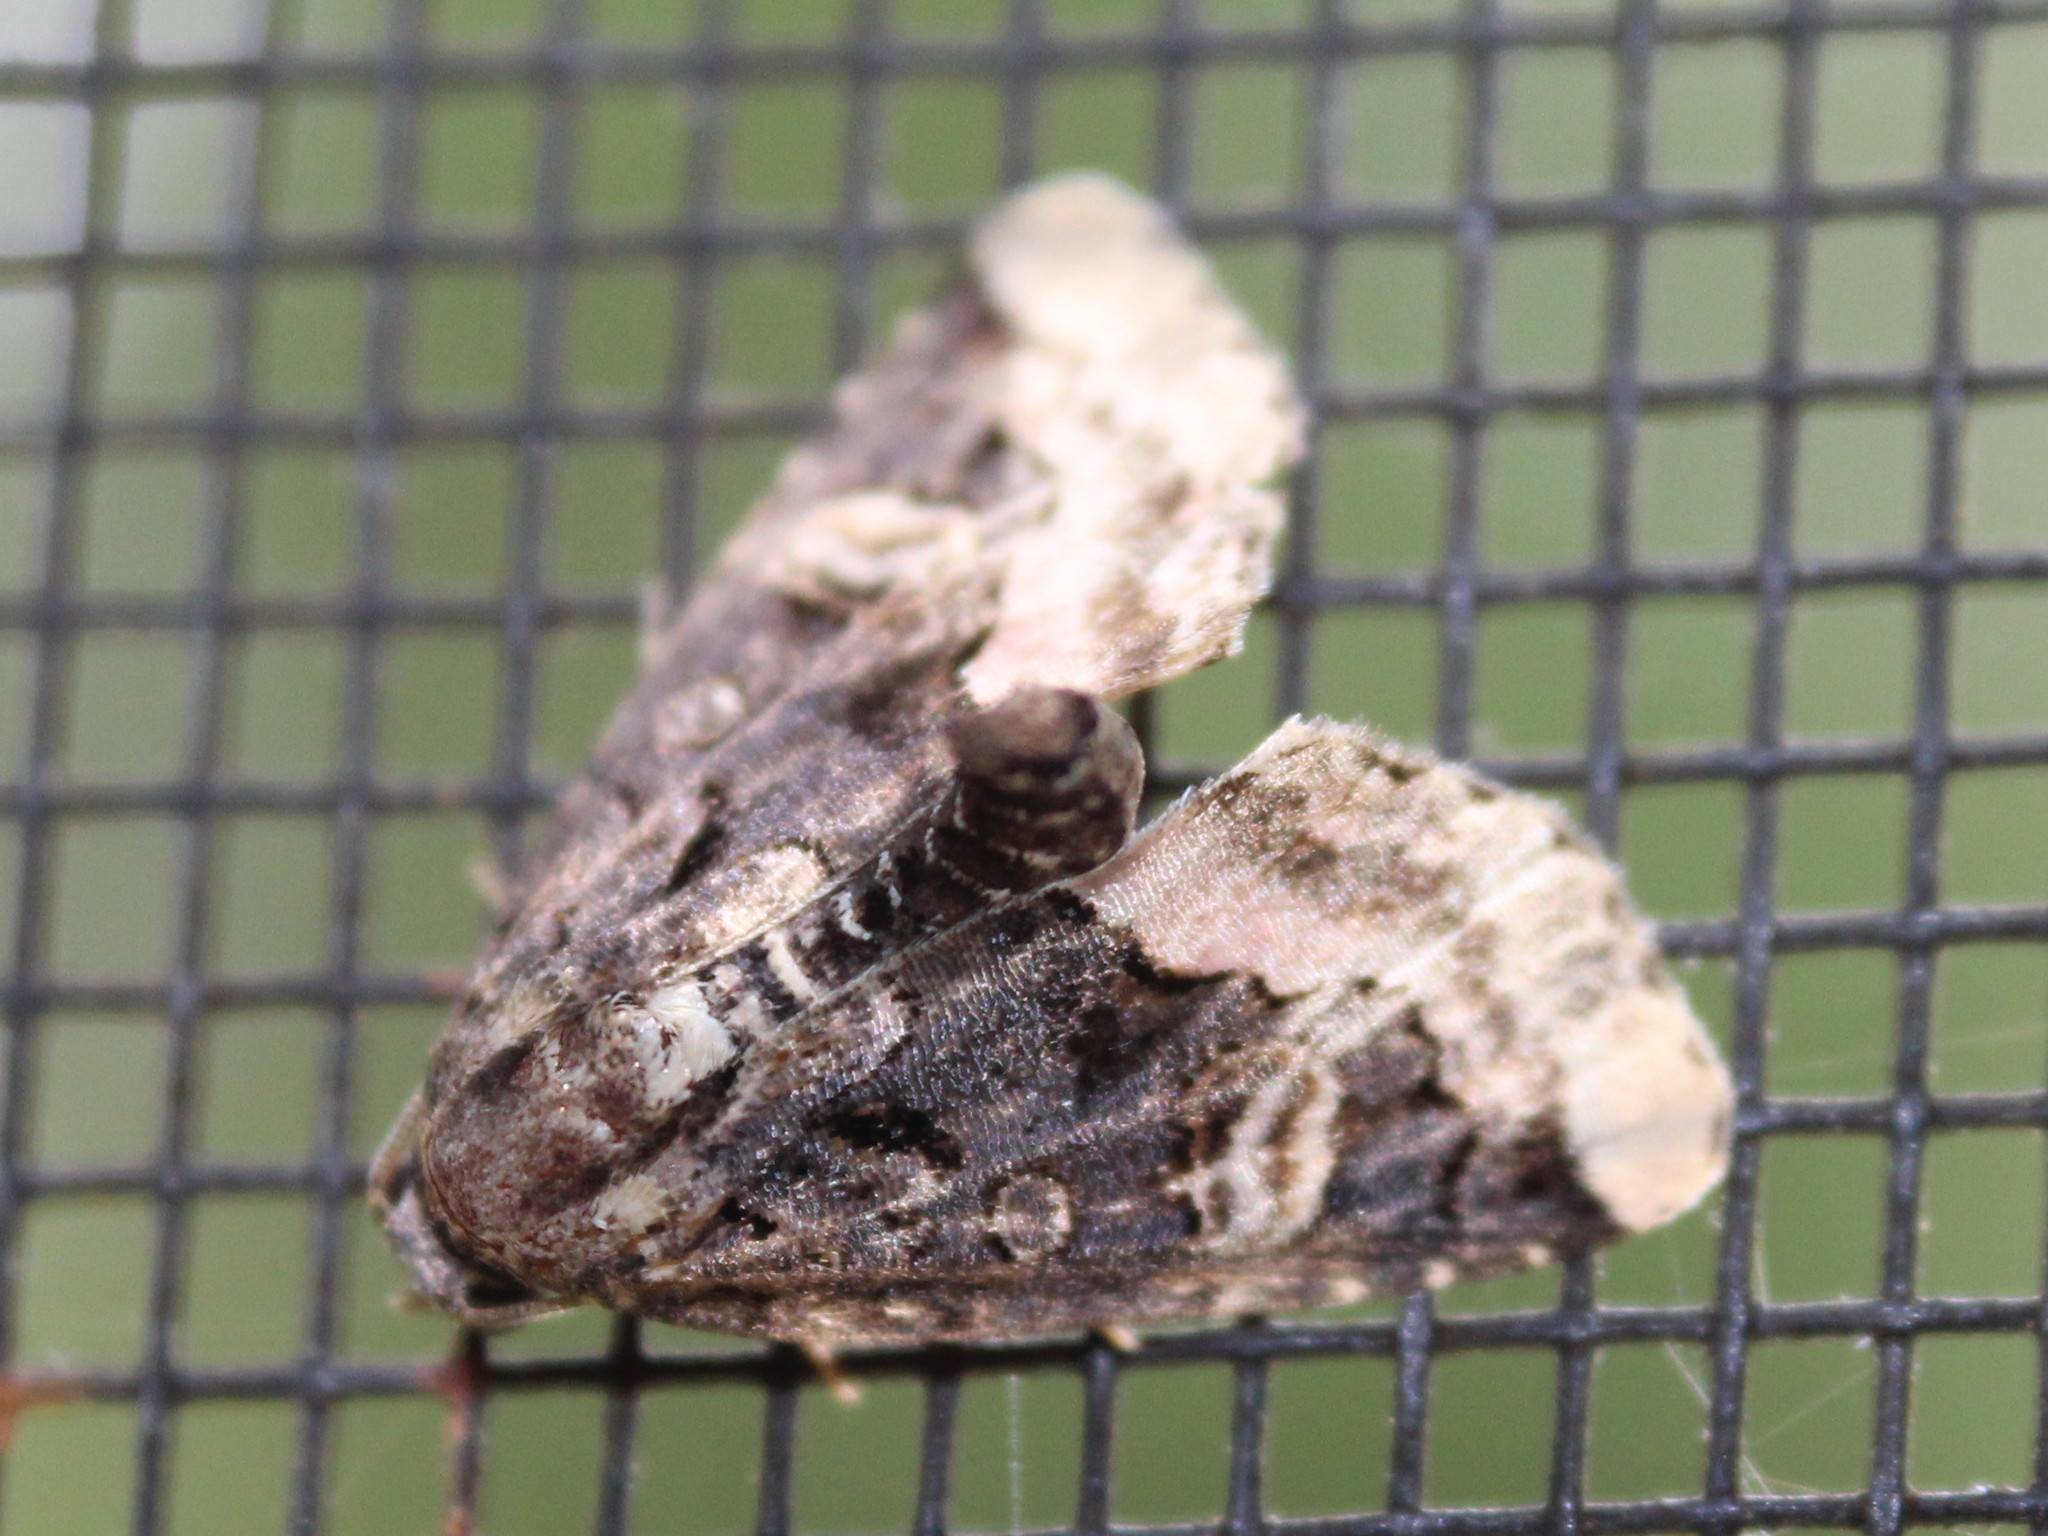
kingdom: Animalia
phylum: Arthropoda
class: Insecta
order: Lepidoptera
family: Noctuidae
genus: Homophoberia
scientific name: Homophoberia apicosa
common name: Black wedge-spot
